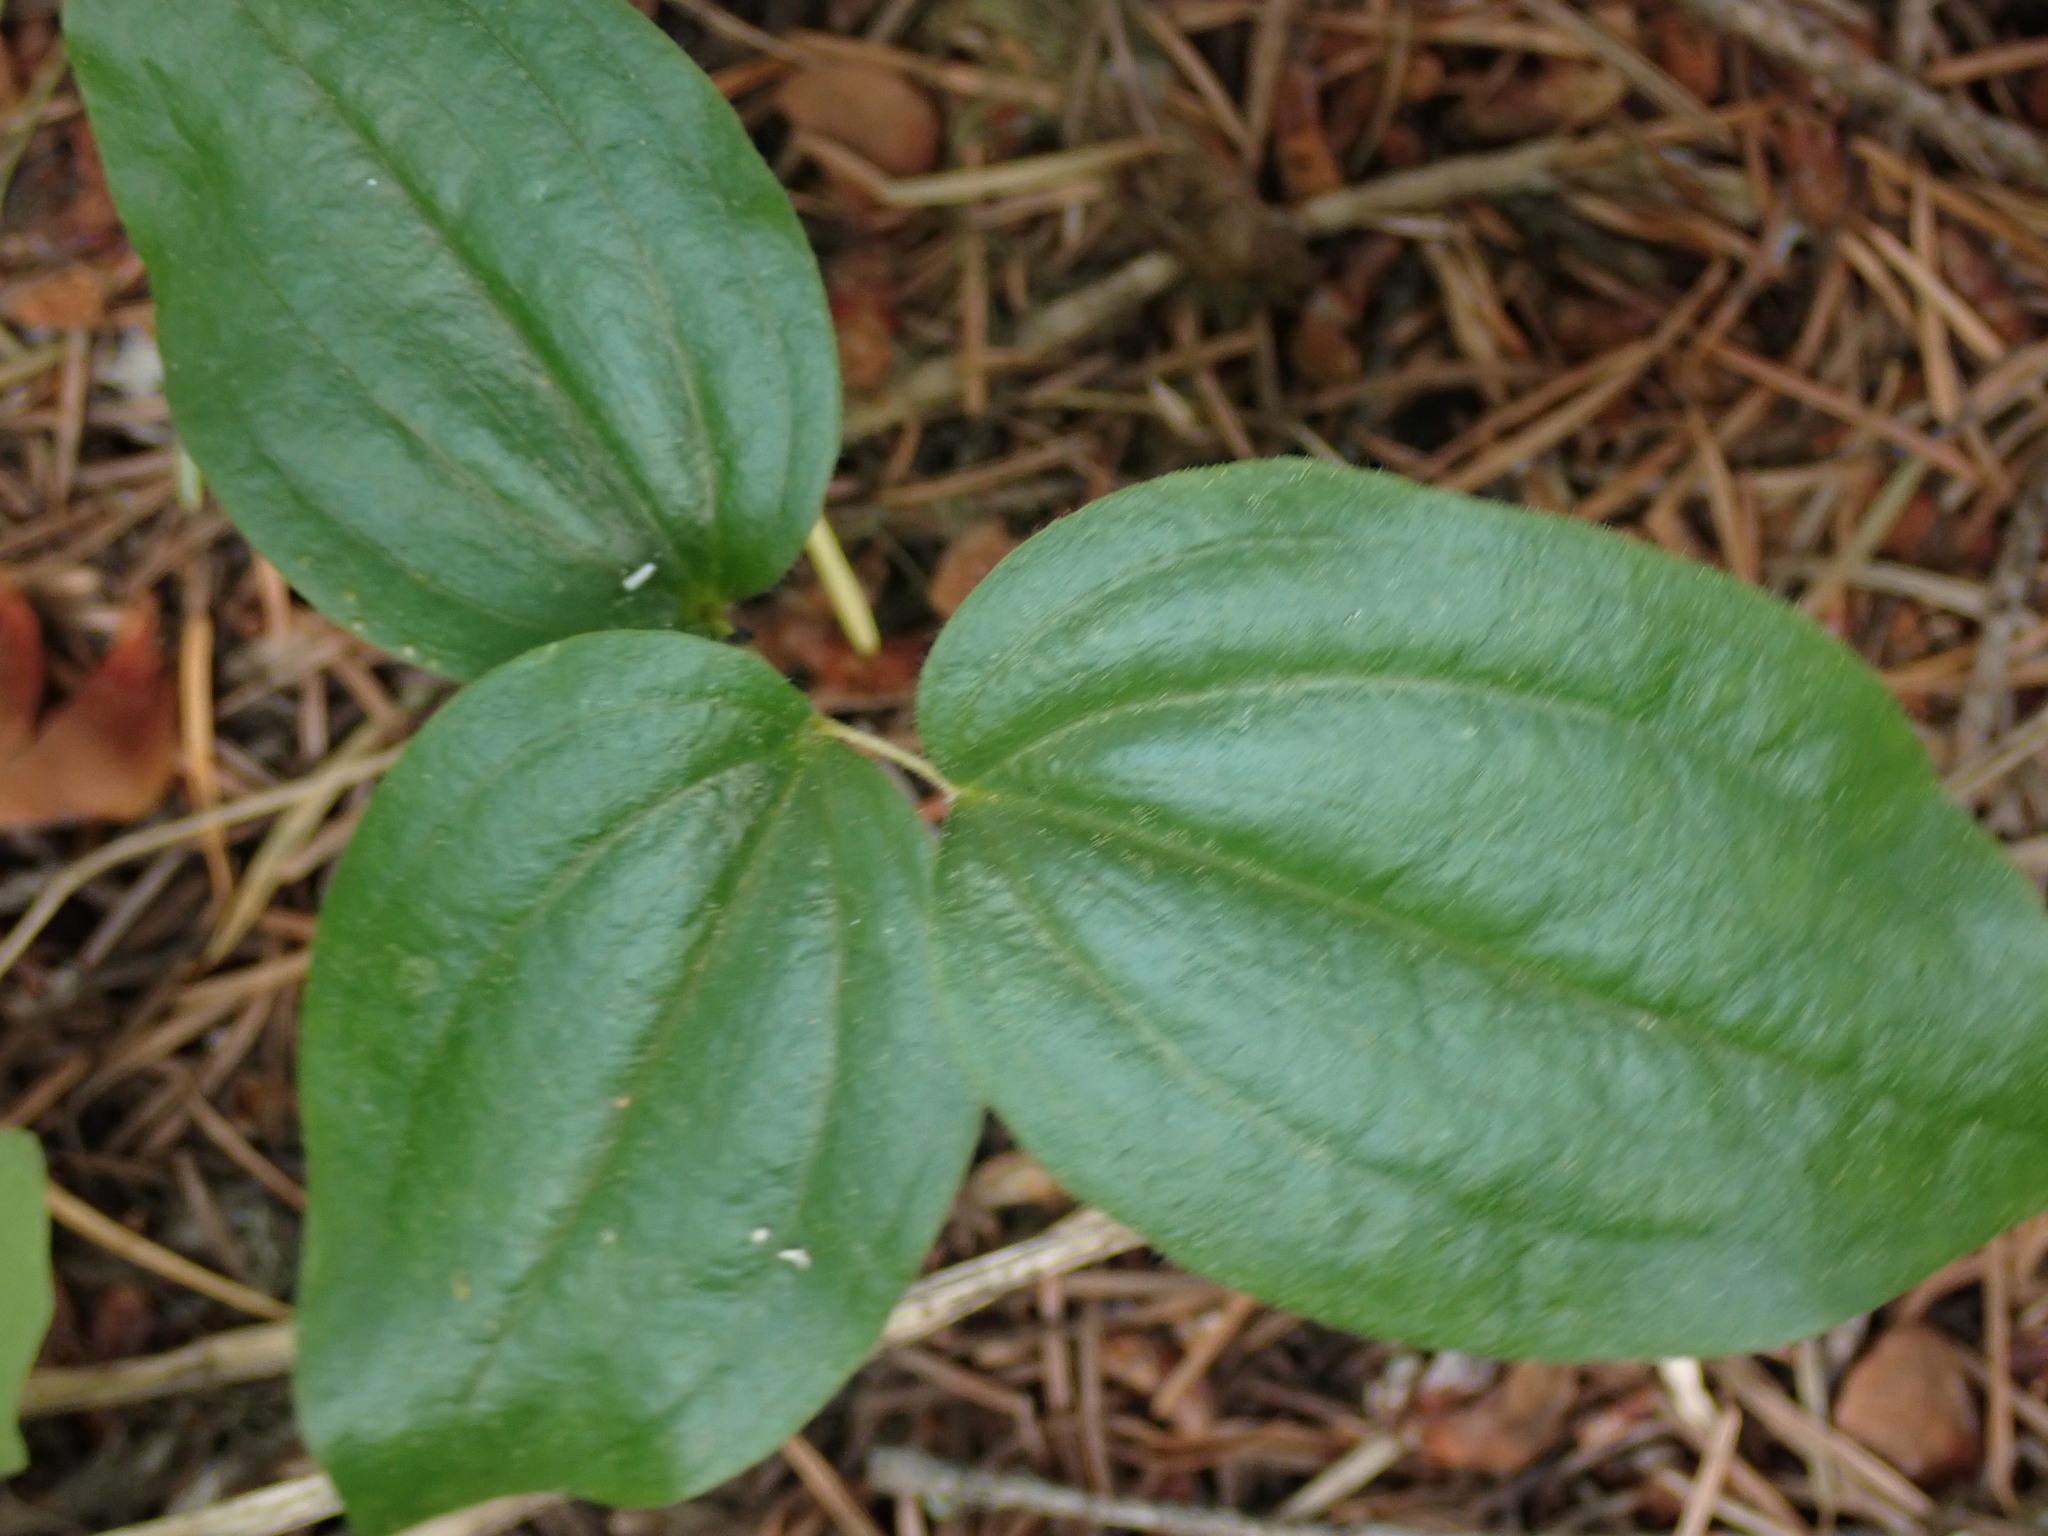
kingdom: Plantae
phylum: Tracheophyta
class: Liliopsida
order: Liliales
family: Liliaceae
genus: Prosartes
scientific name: Prosartes trachycarpa
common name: Rough-fruit fairy-bells
